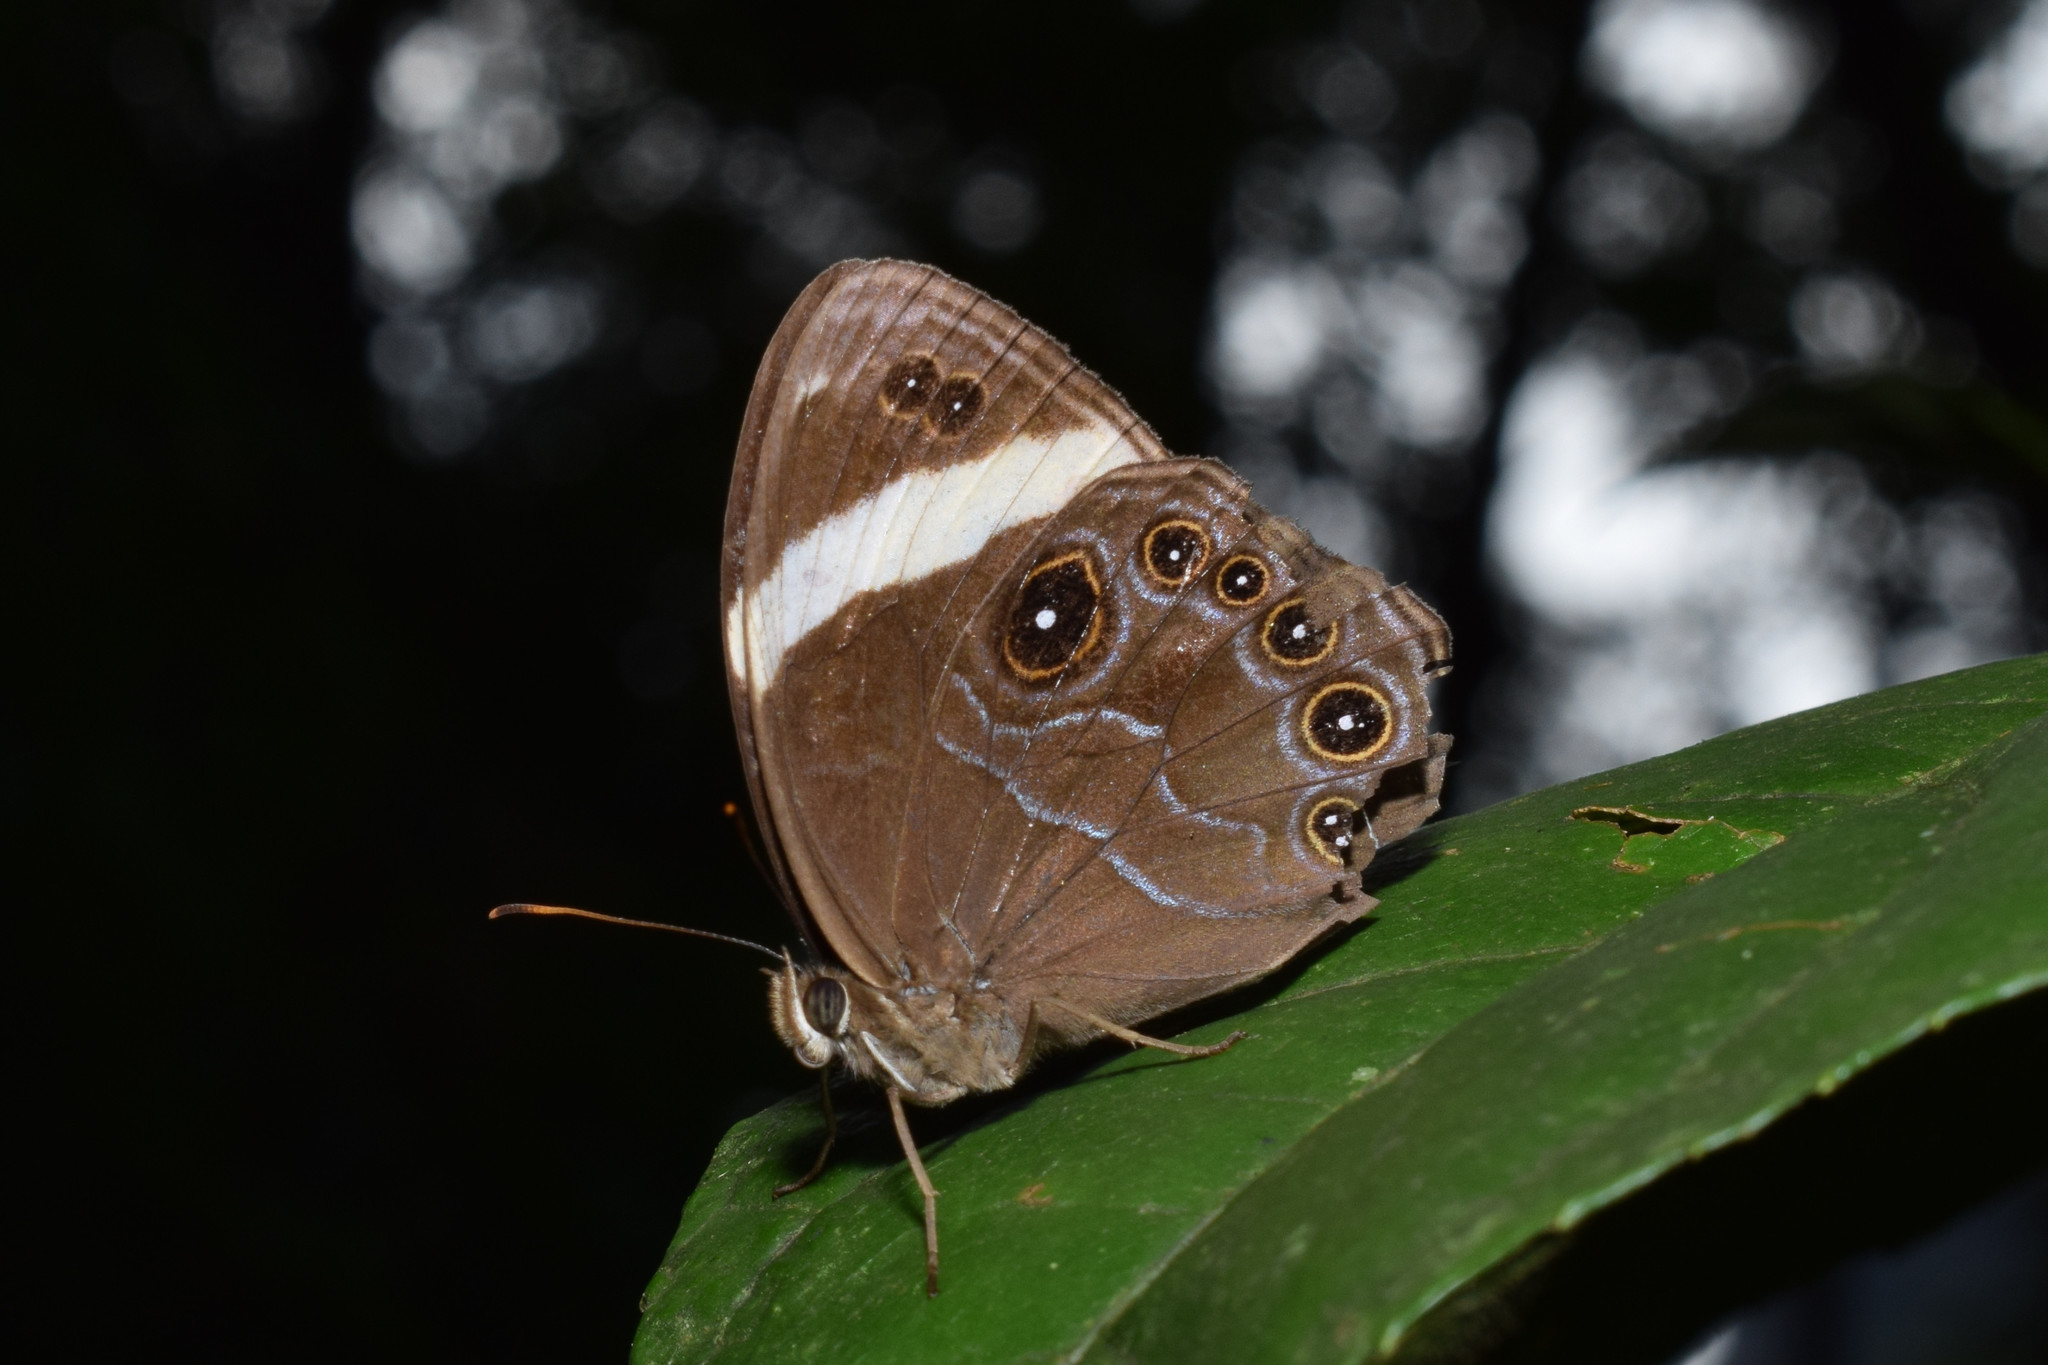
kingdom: Animalia
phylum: Arthropoda
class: Insecta
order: Lepidoptera
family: Nymphalidae
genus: Lethe
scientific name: Lethe verma
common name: Straight-banded treebrown
